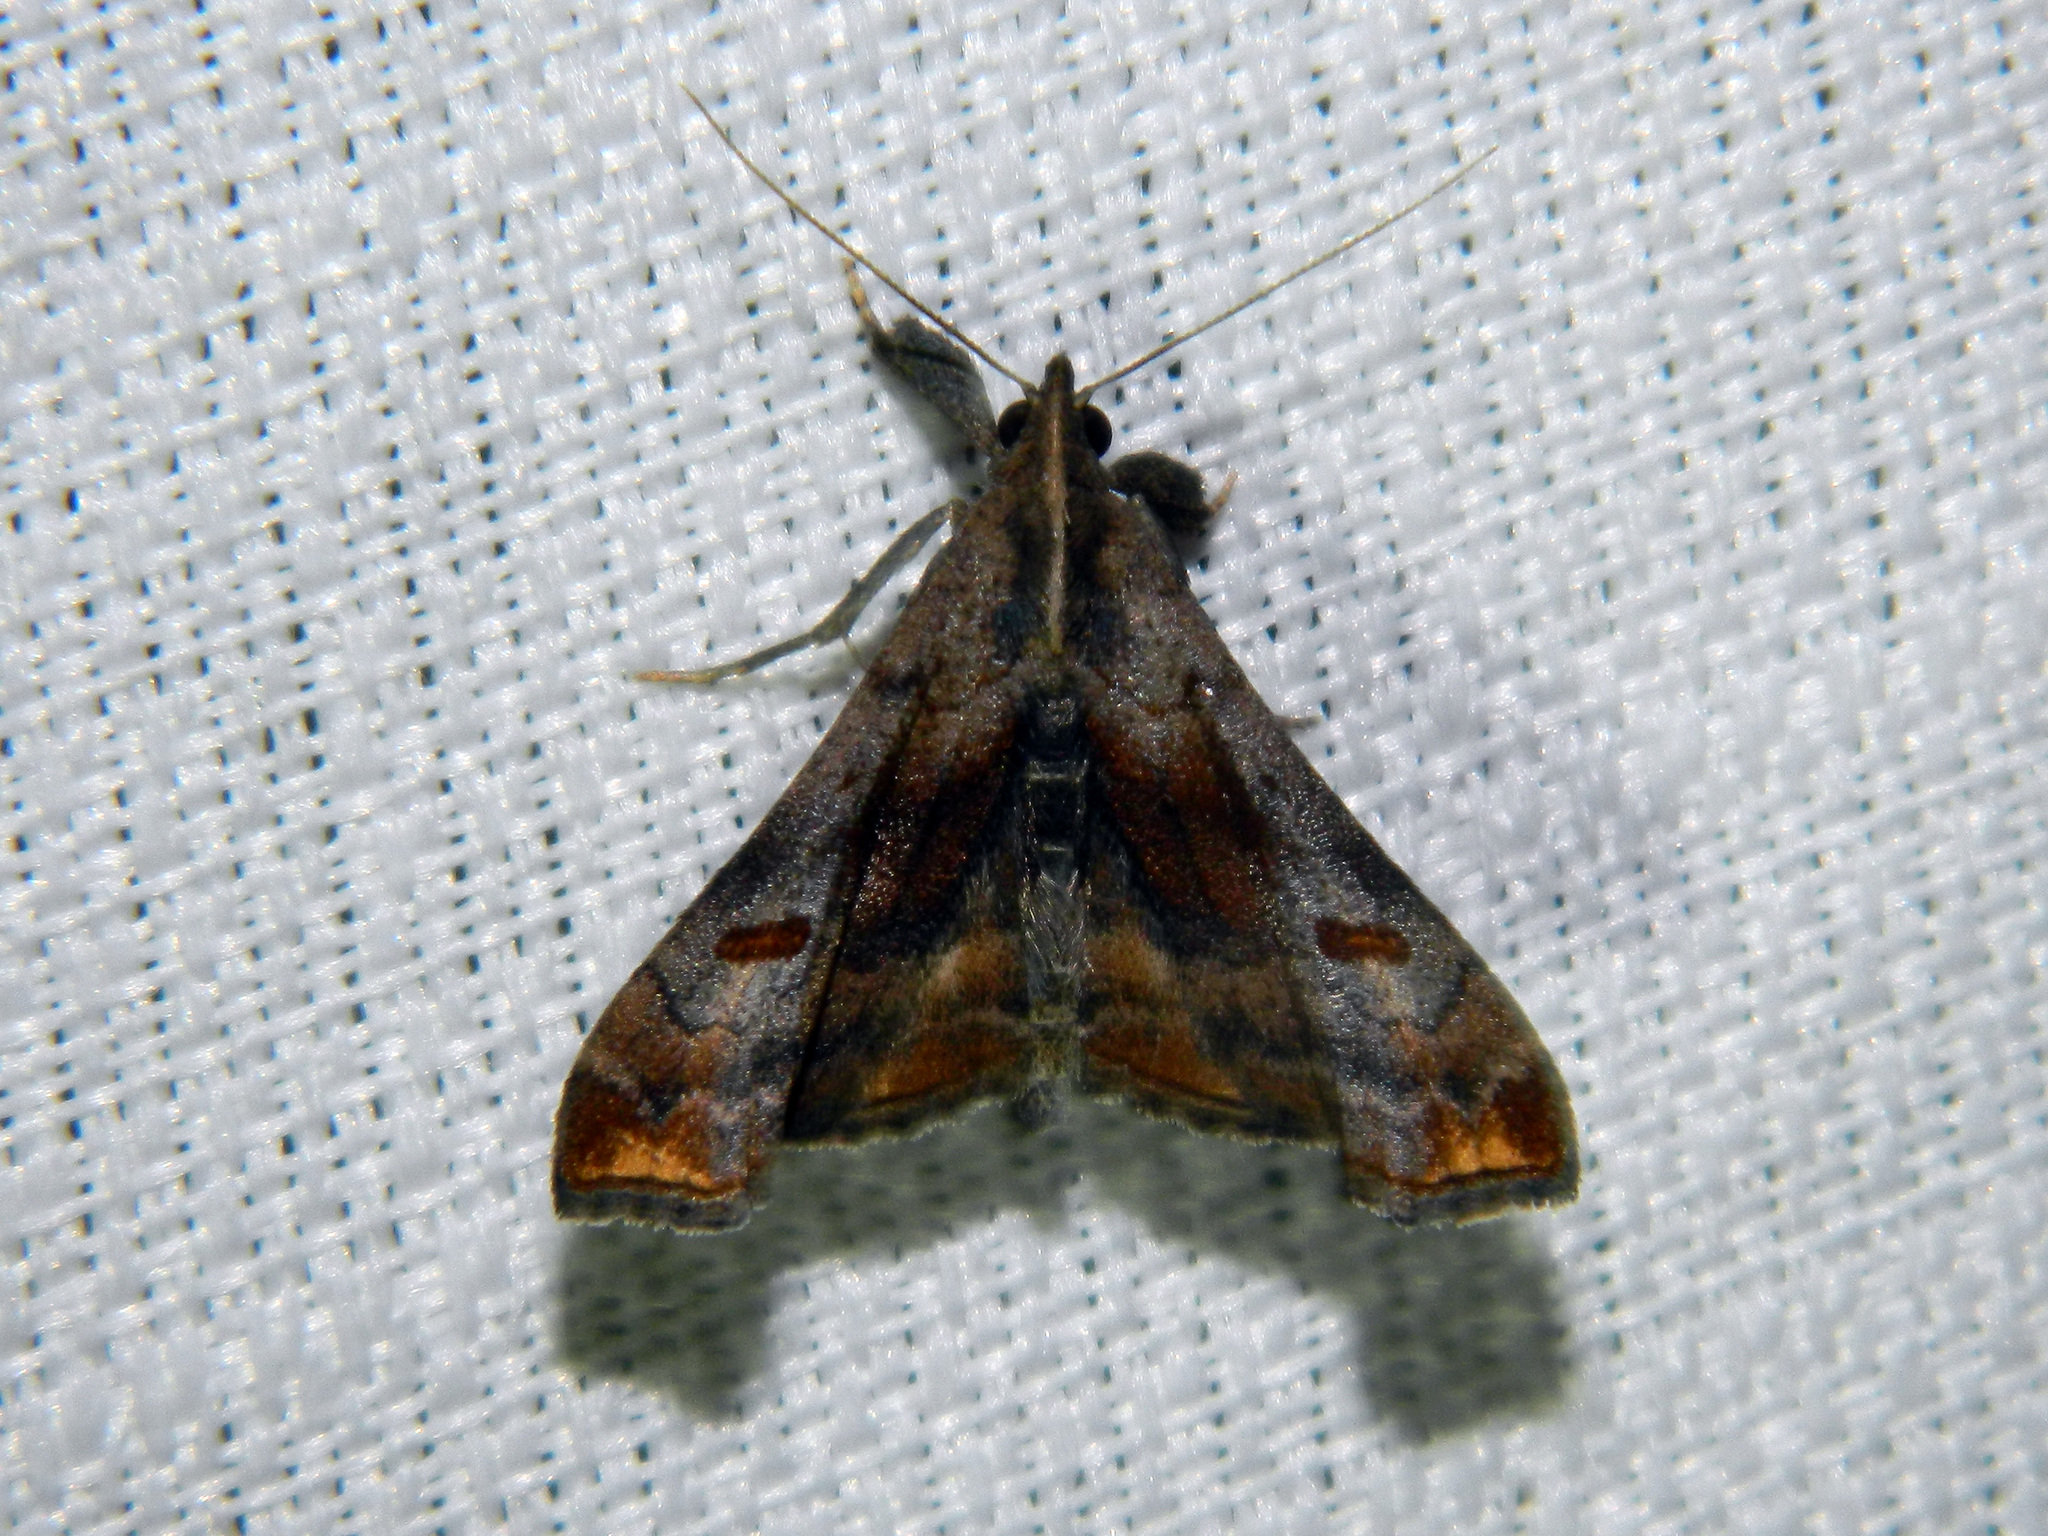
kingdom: Animalia
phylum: Arthropoda
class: Insecta
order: Lepidoptera
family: Erebidae
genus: Palthis
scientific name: Palthis angulalis
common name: Dark-spotted palthis moth
